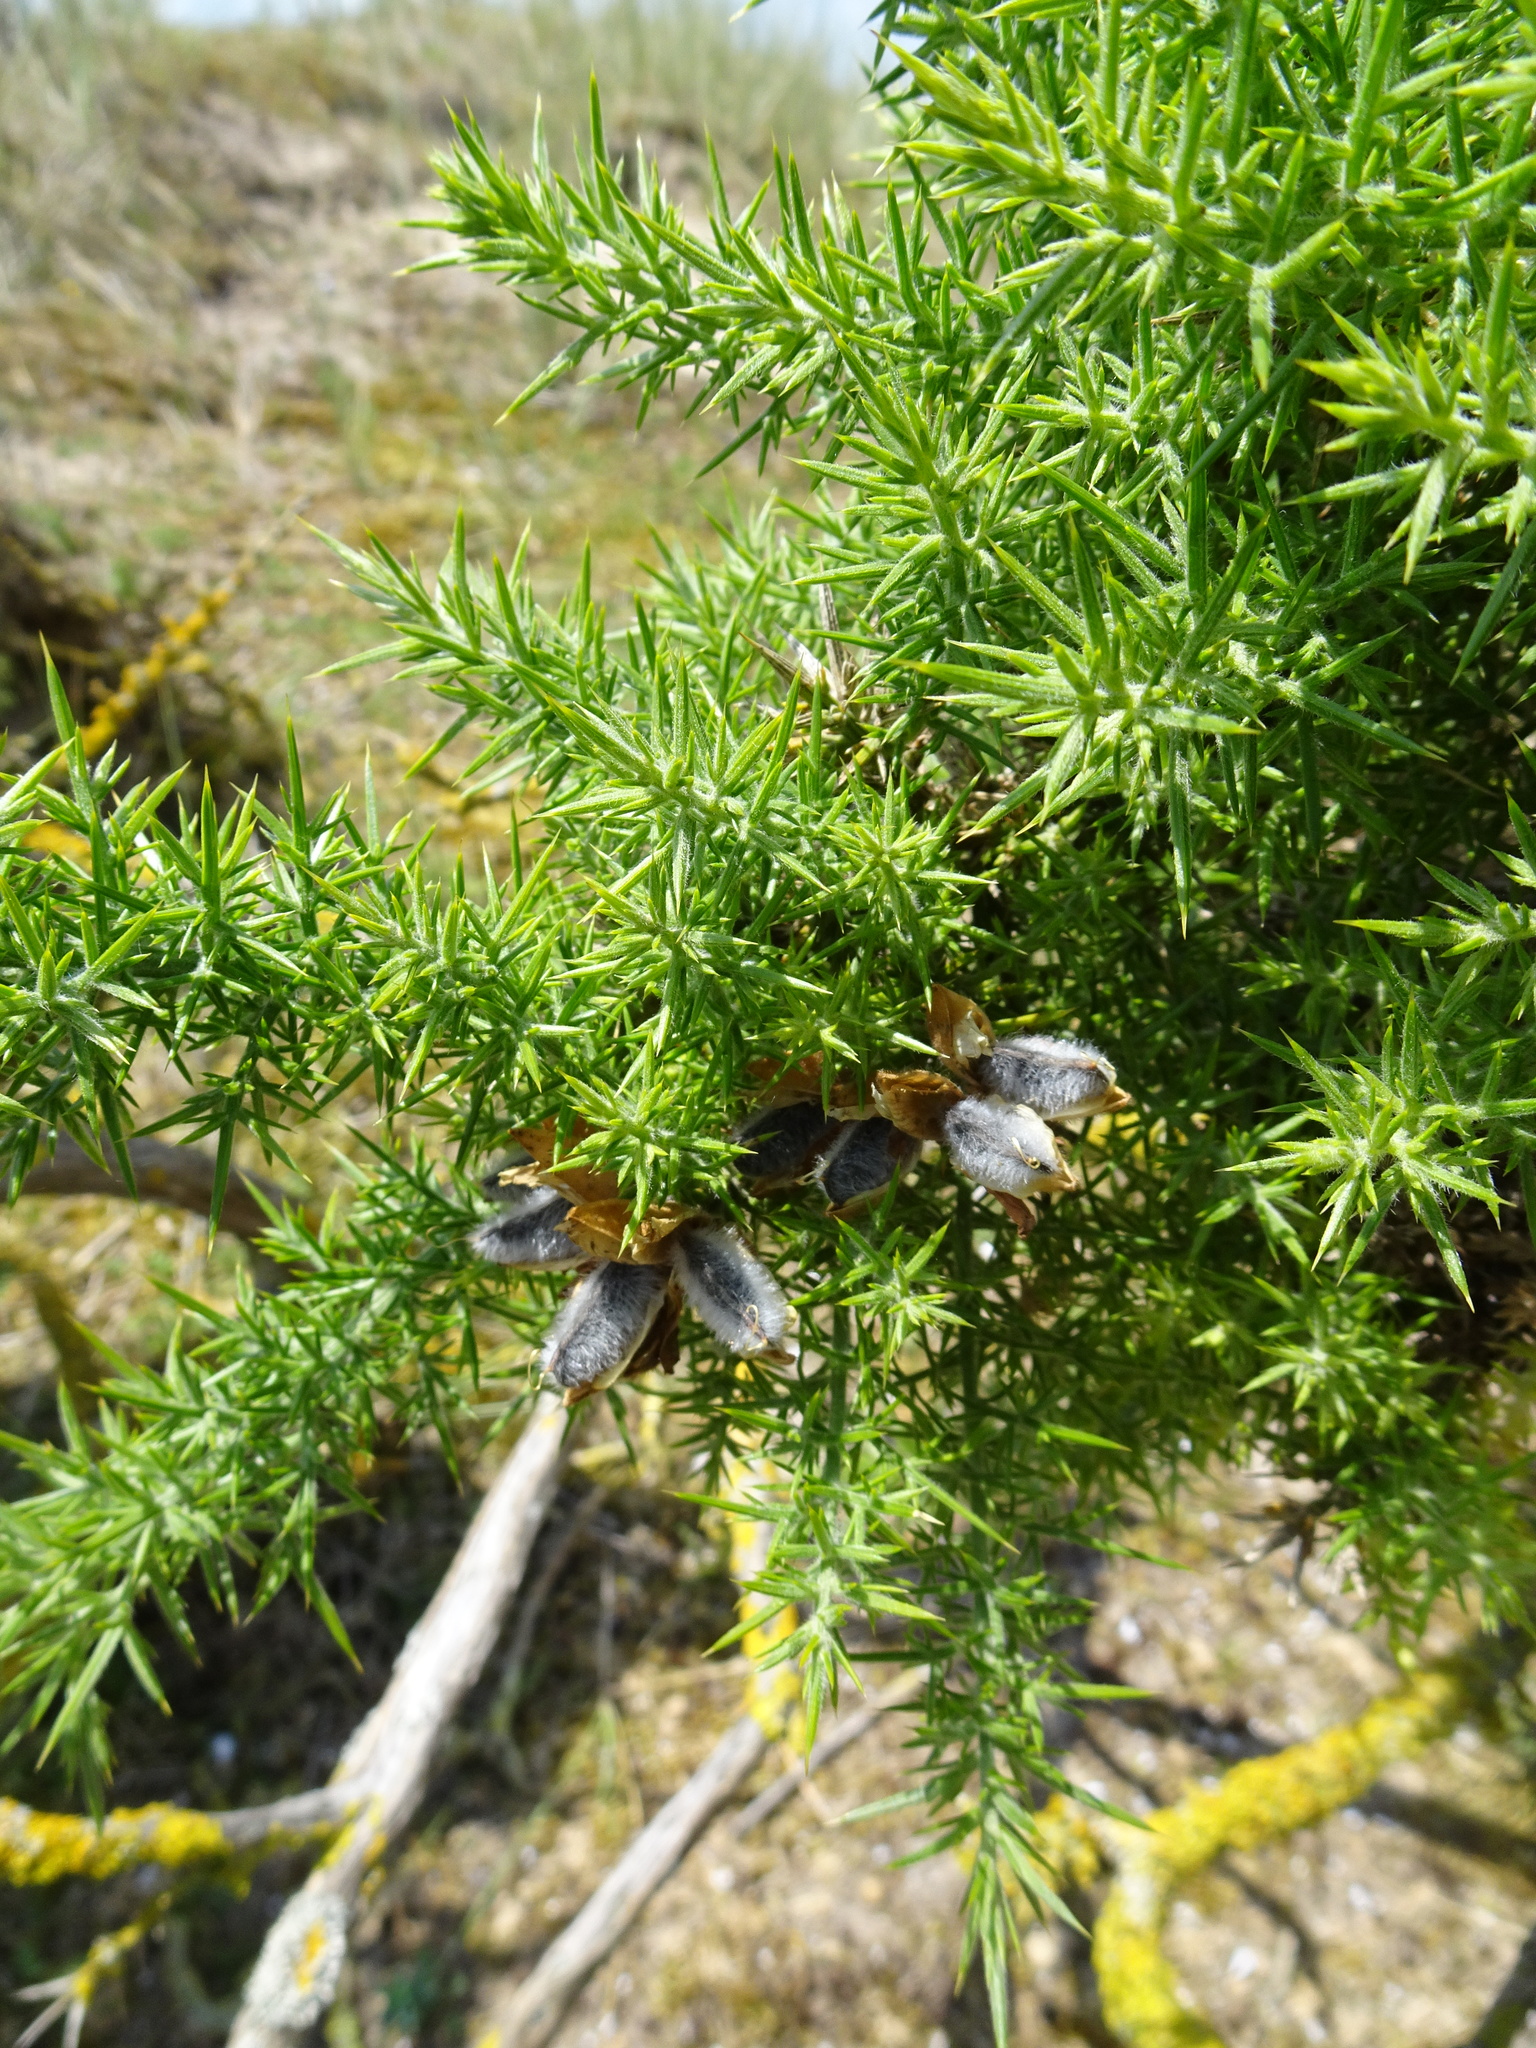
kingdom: Plantae
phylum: Tracheophyta
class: Magnoliopsida
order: Fabales
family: Fabaceae
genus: Ulex
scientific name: Ulex europaeus
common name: Common gorse
